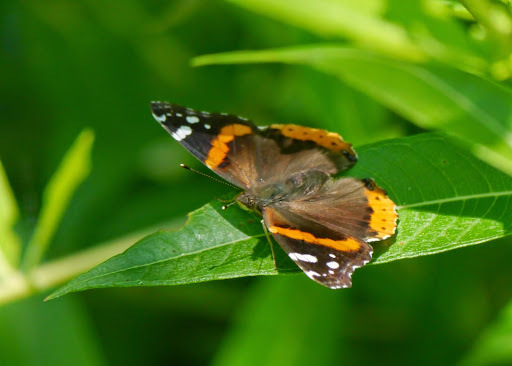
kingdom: Animalia
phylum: Arthropoda
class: Insecta
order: Lepidoptera
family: Nymphalidae
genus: Vanessa
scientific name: Vanessa atalanta
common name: Red admiral
